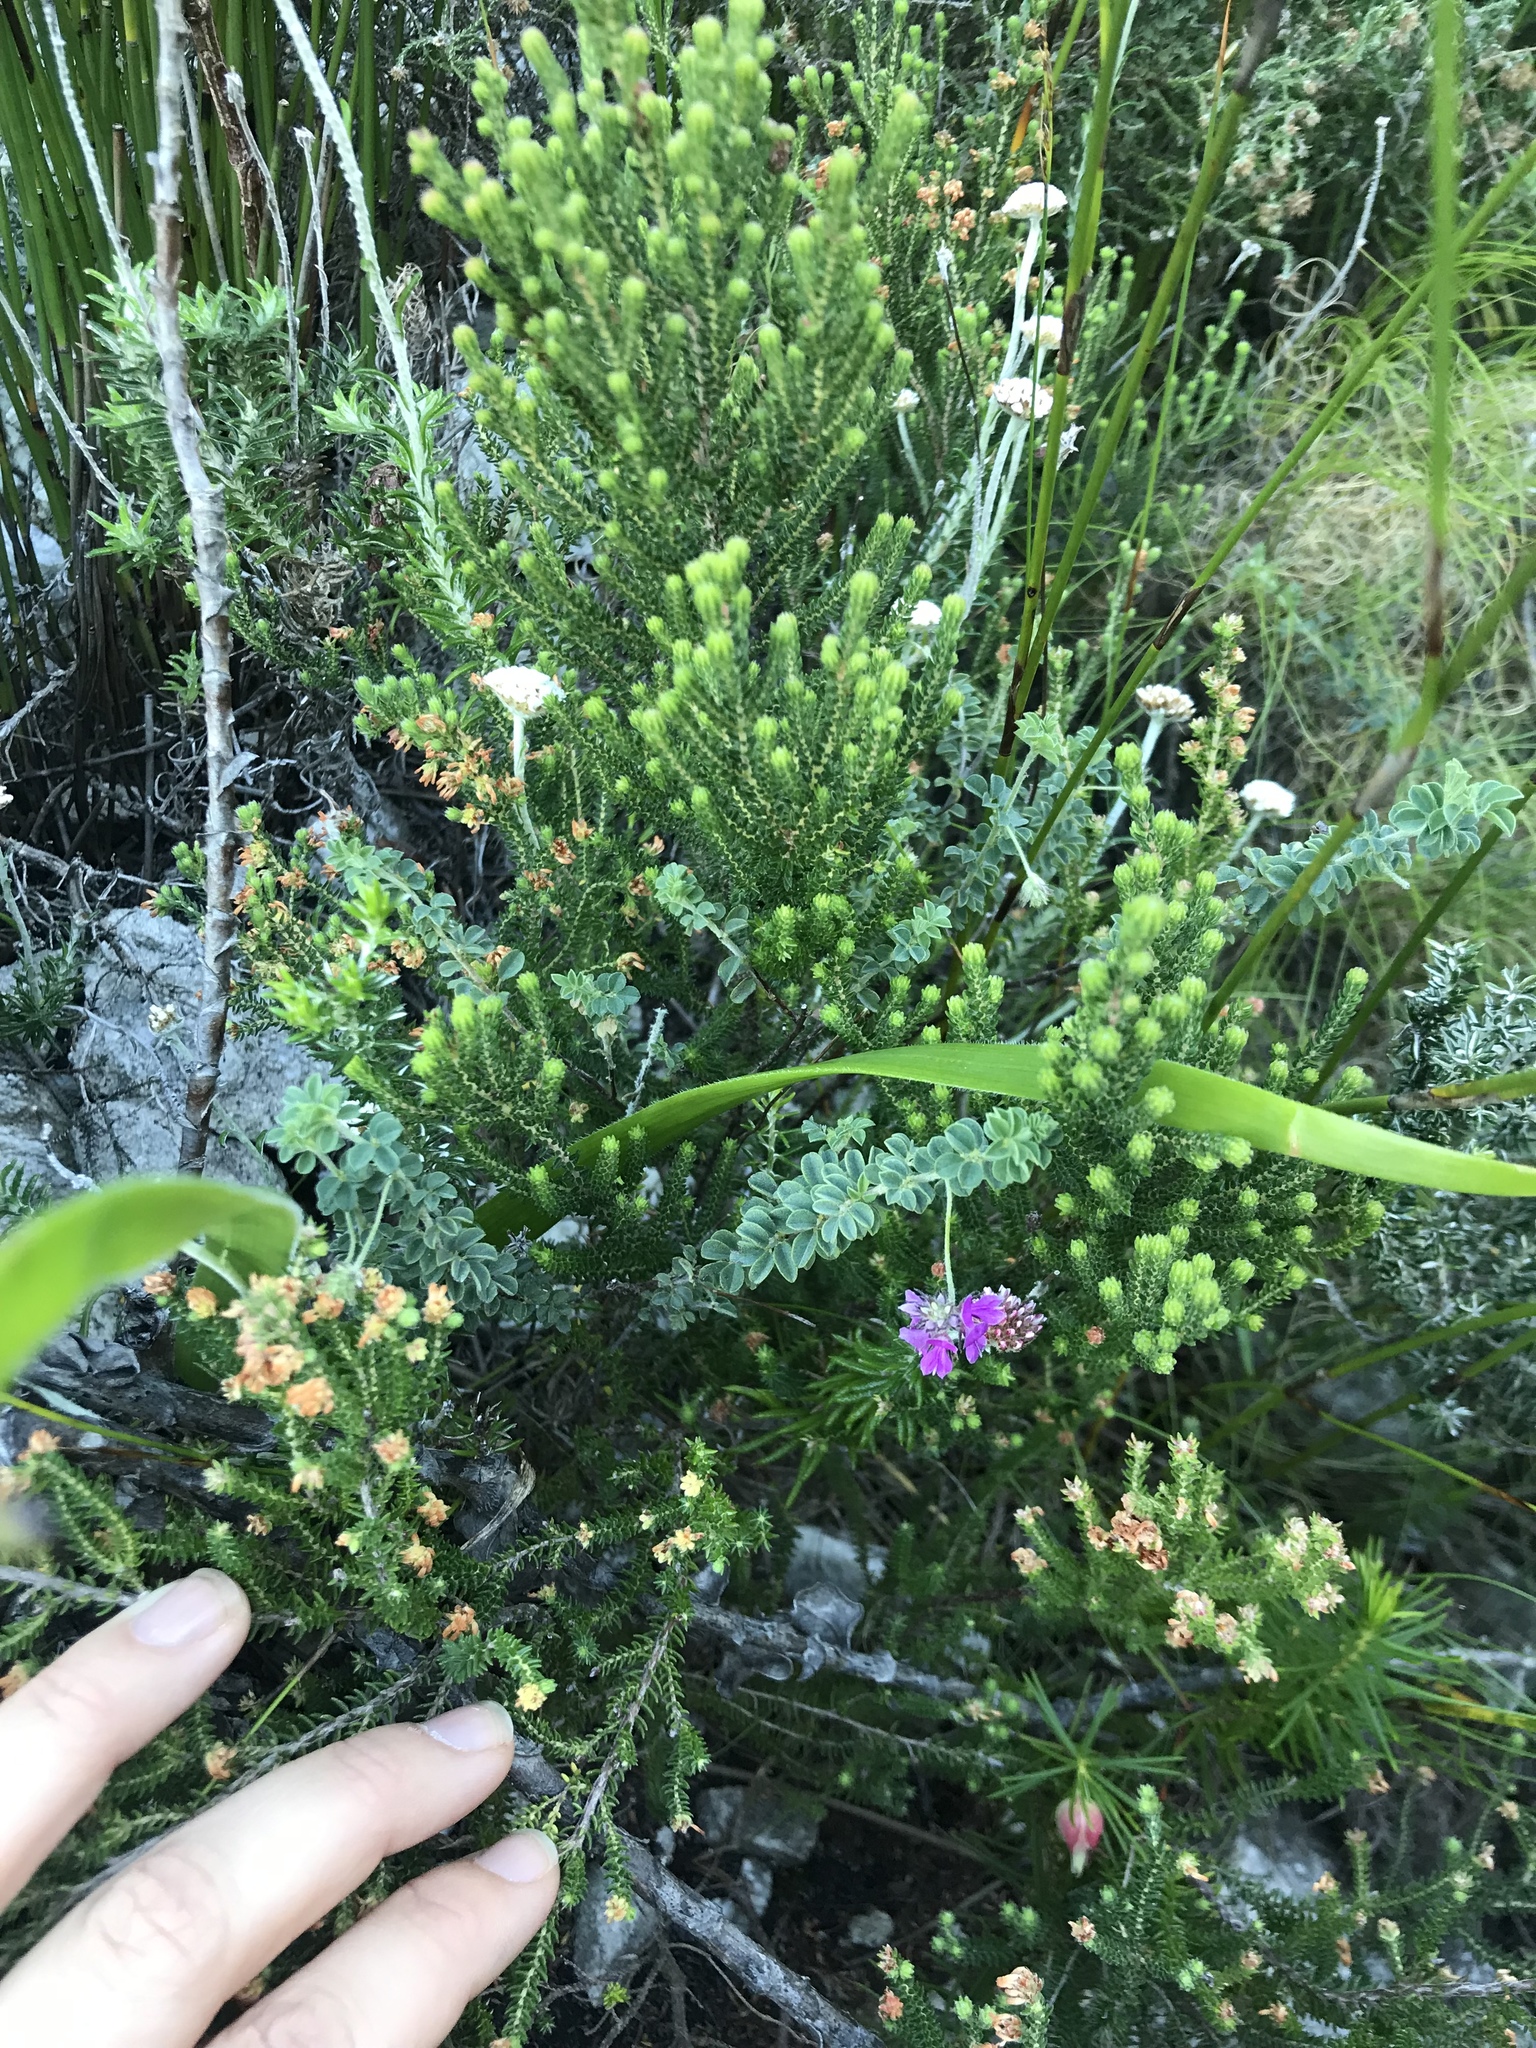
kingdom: Plantae
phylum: Tracheophyta
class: Magnoliopsida
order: Fabales
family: Fabaceae
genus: Indigofera
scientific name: Indigofera alopecuroides
